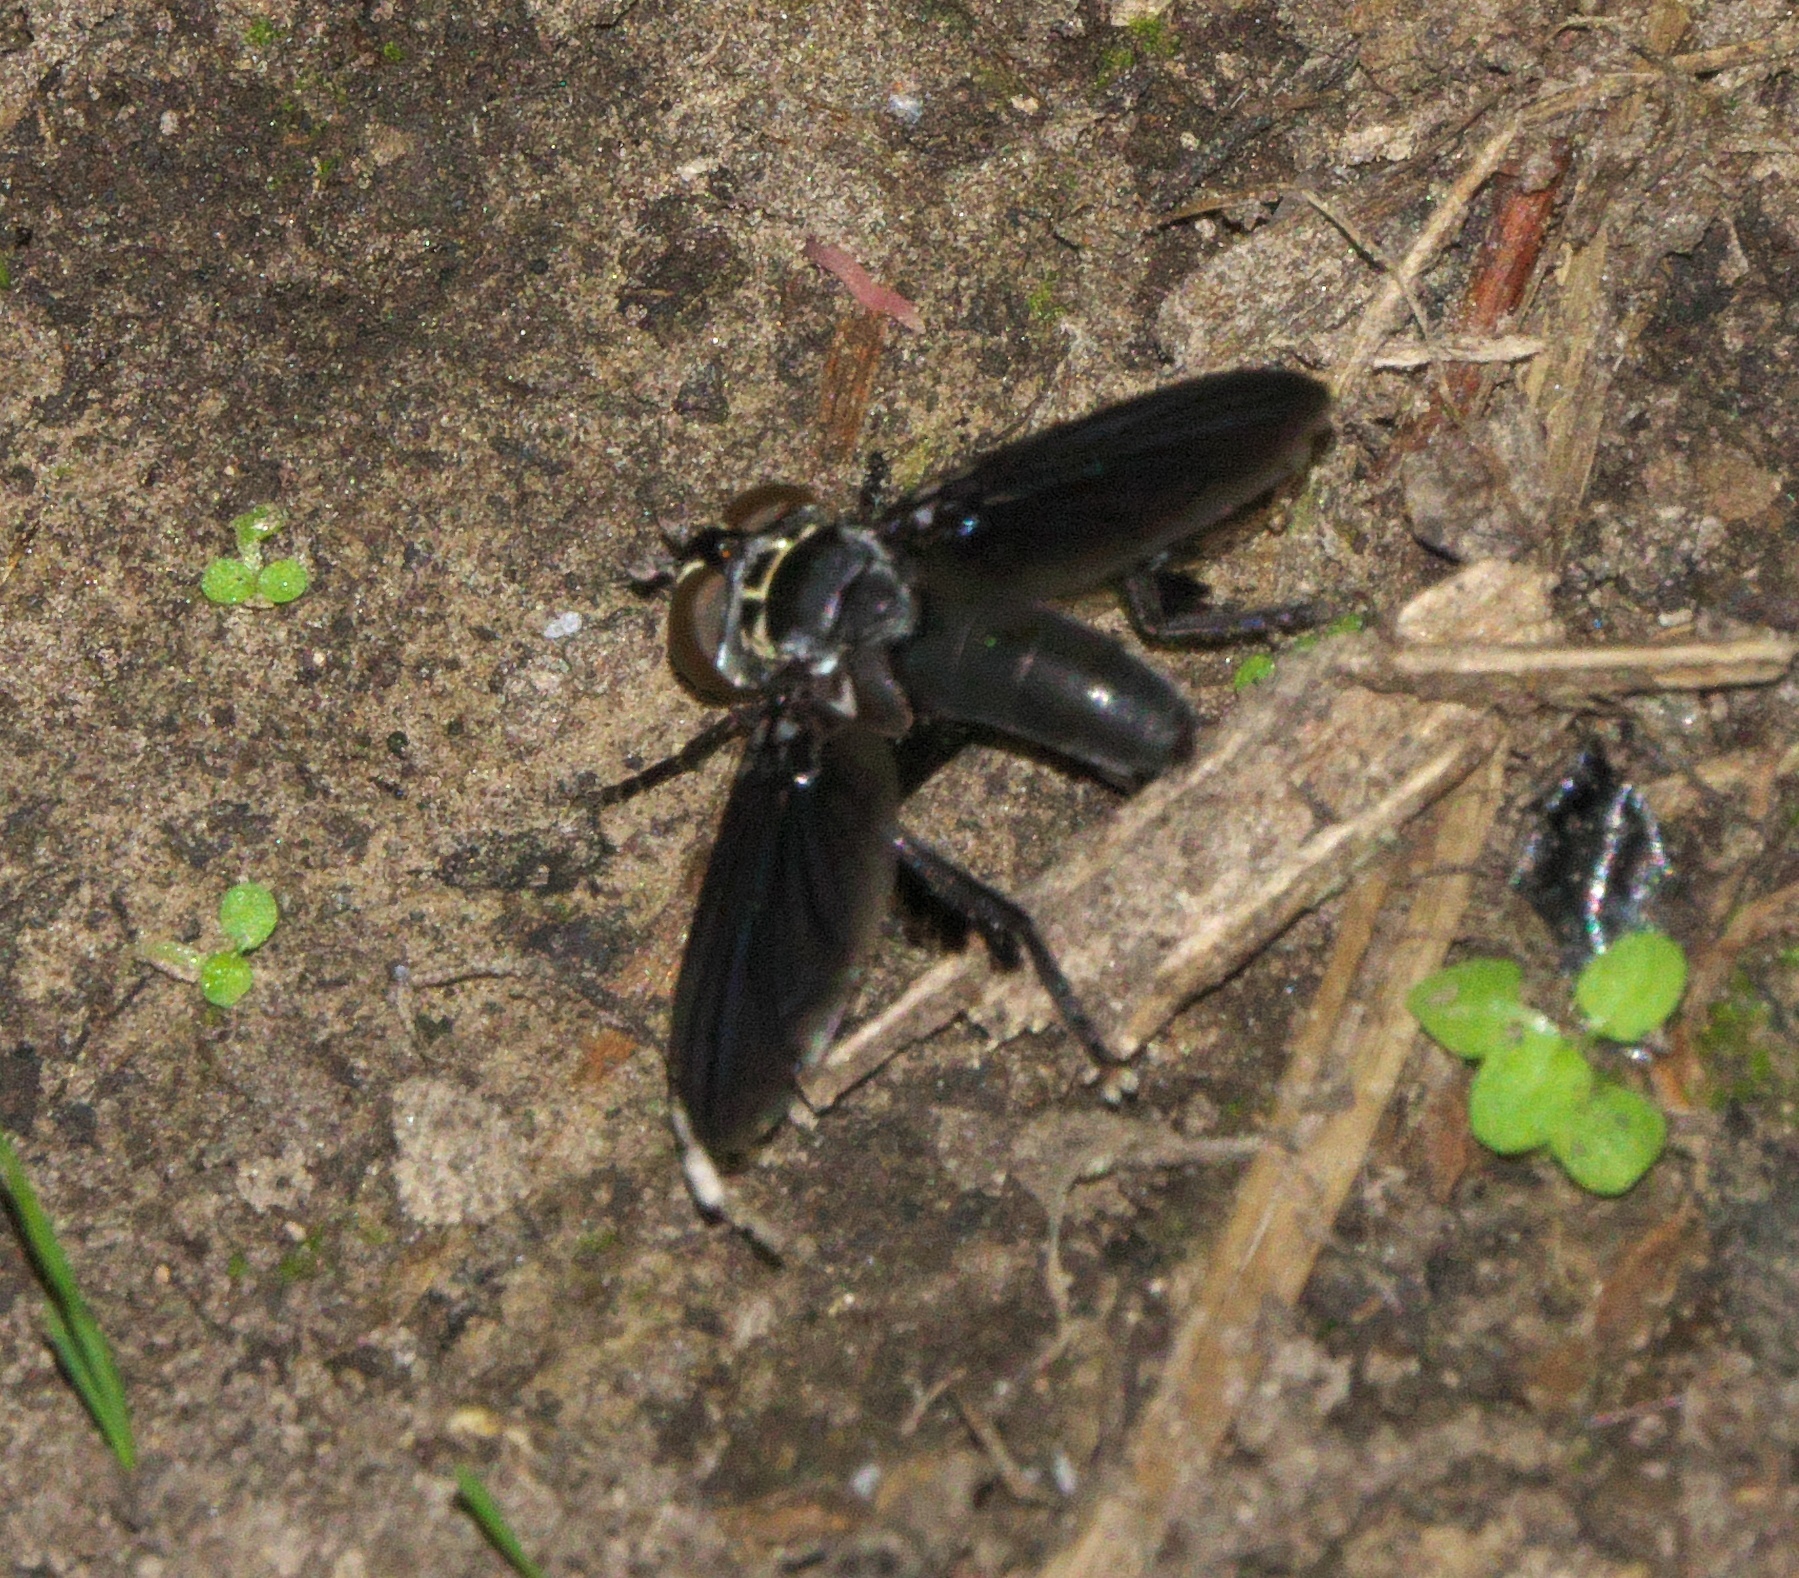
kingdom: Animalia
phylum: Arthropoda
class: Insecta
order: Diptera
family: Tachinidae
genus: Trichopoda
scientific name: Trichopoda lanipes
